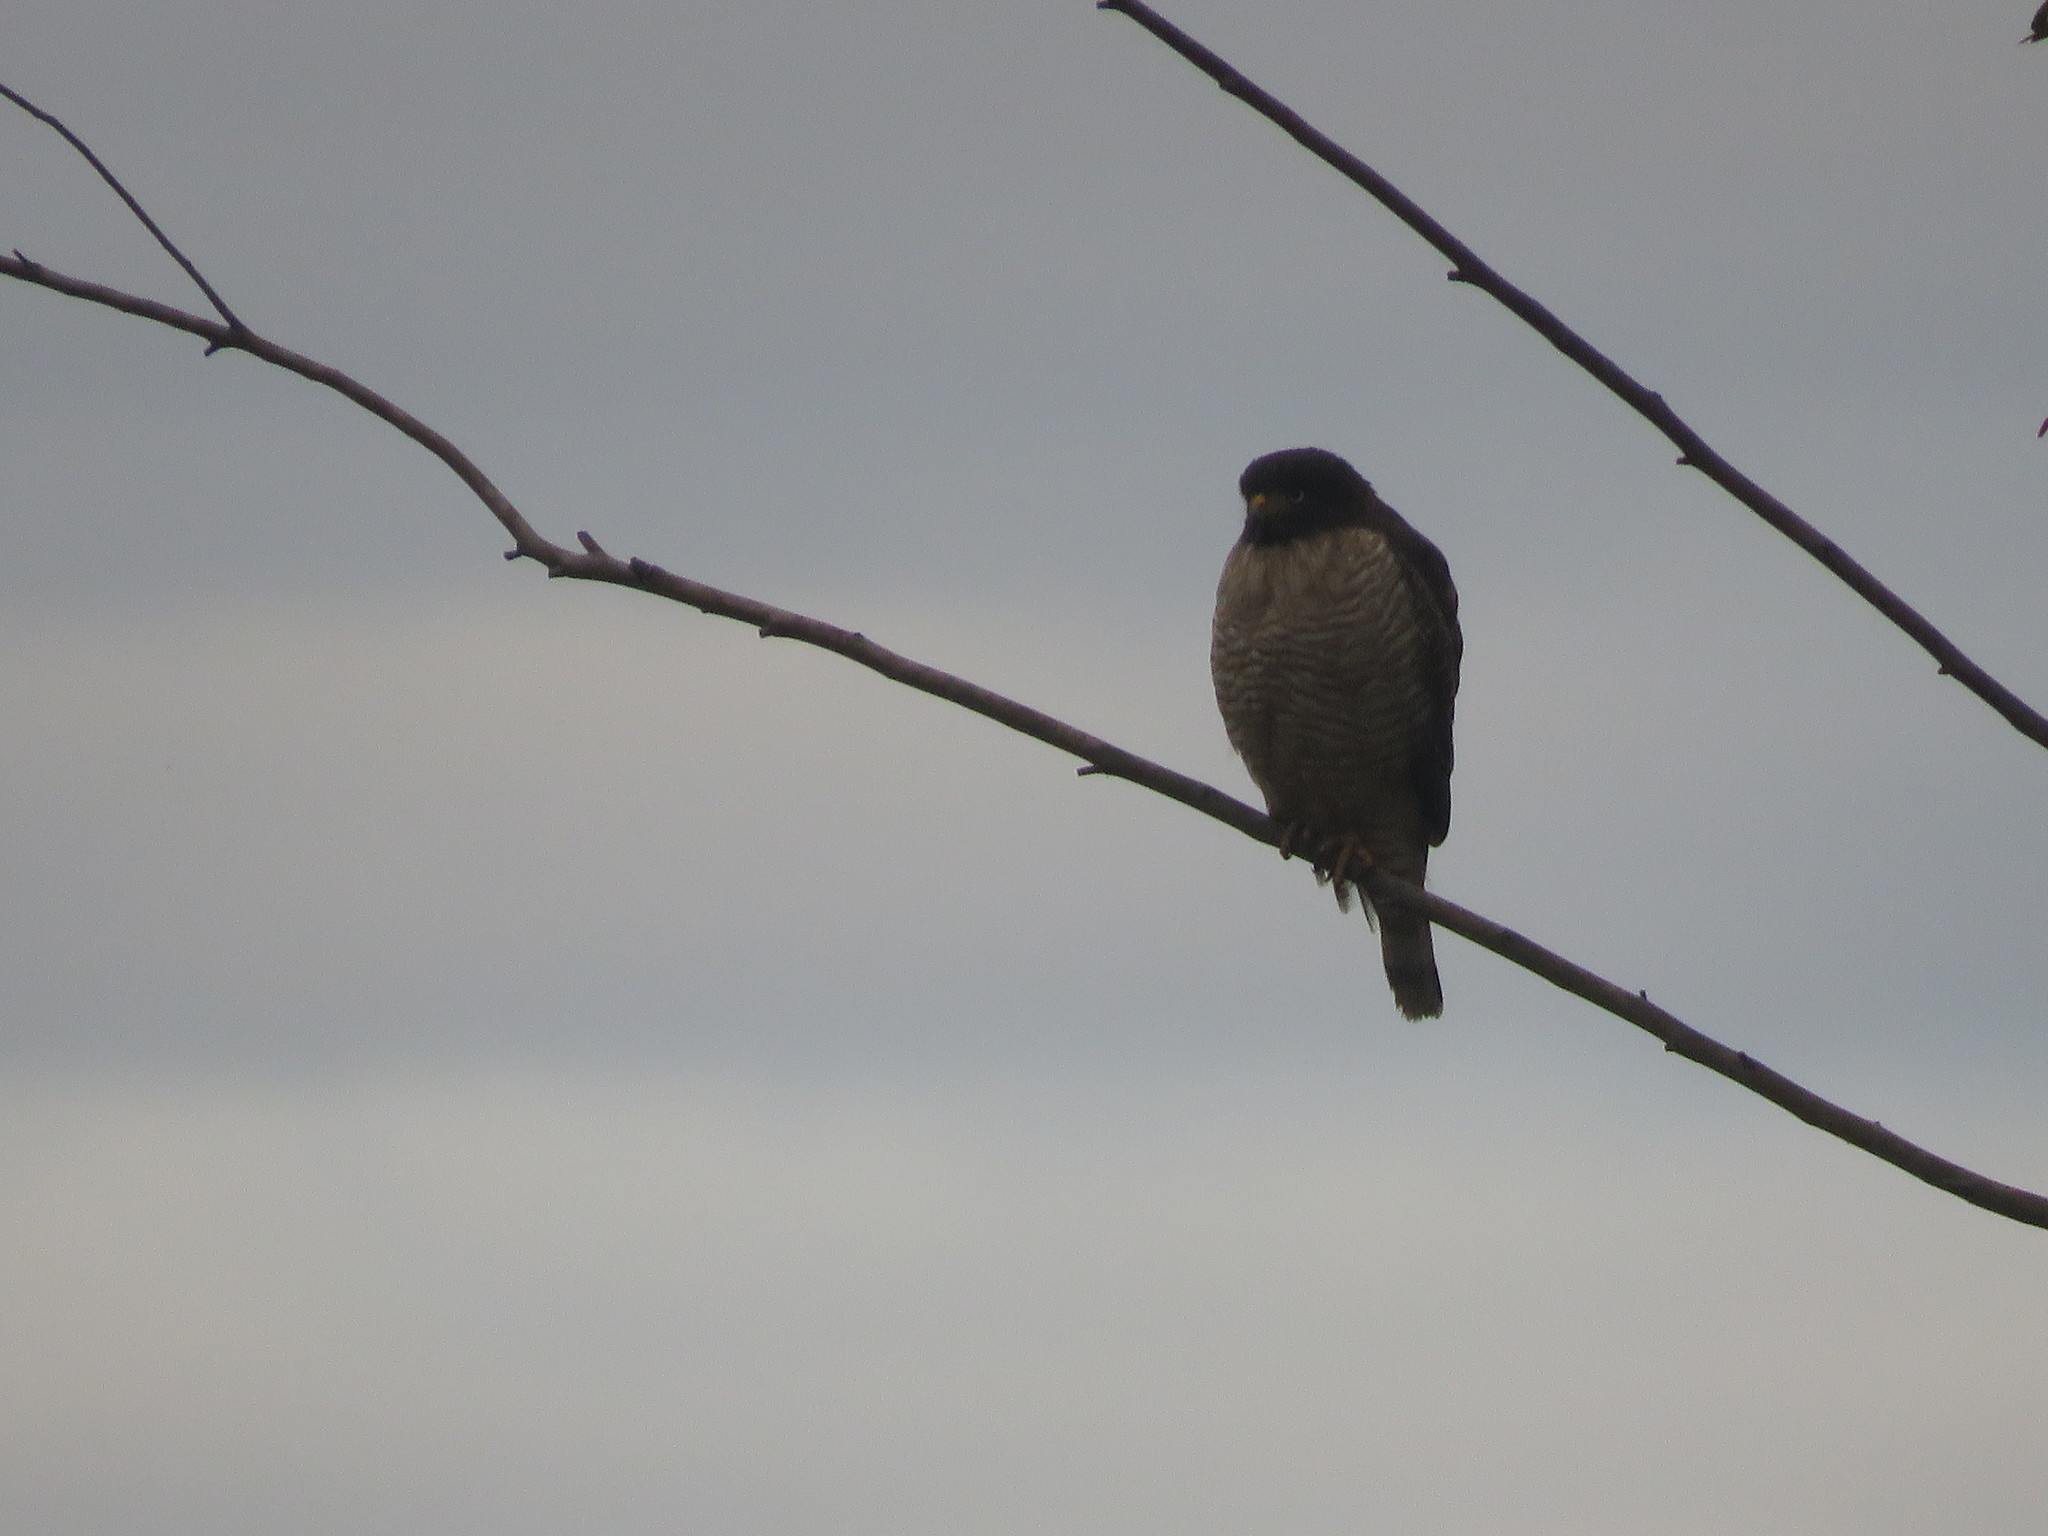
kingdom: Animalia
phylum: Chordata
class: Aves
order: Accipitriformes
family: Accipitridae
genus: Rupornis
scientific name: Rupornis magnirostris
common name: Roadside hawk
